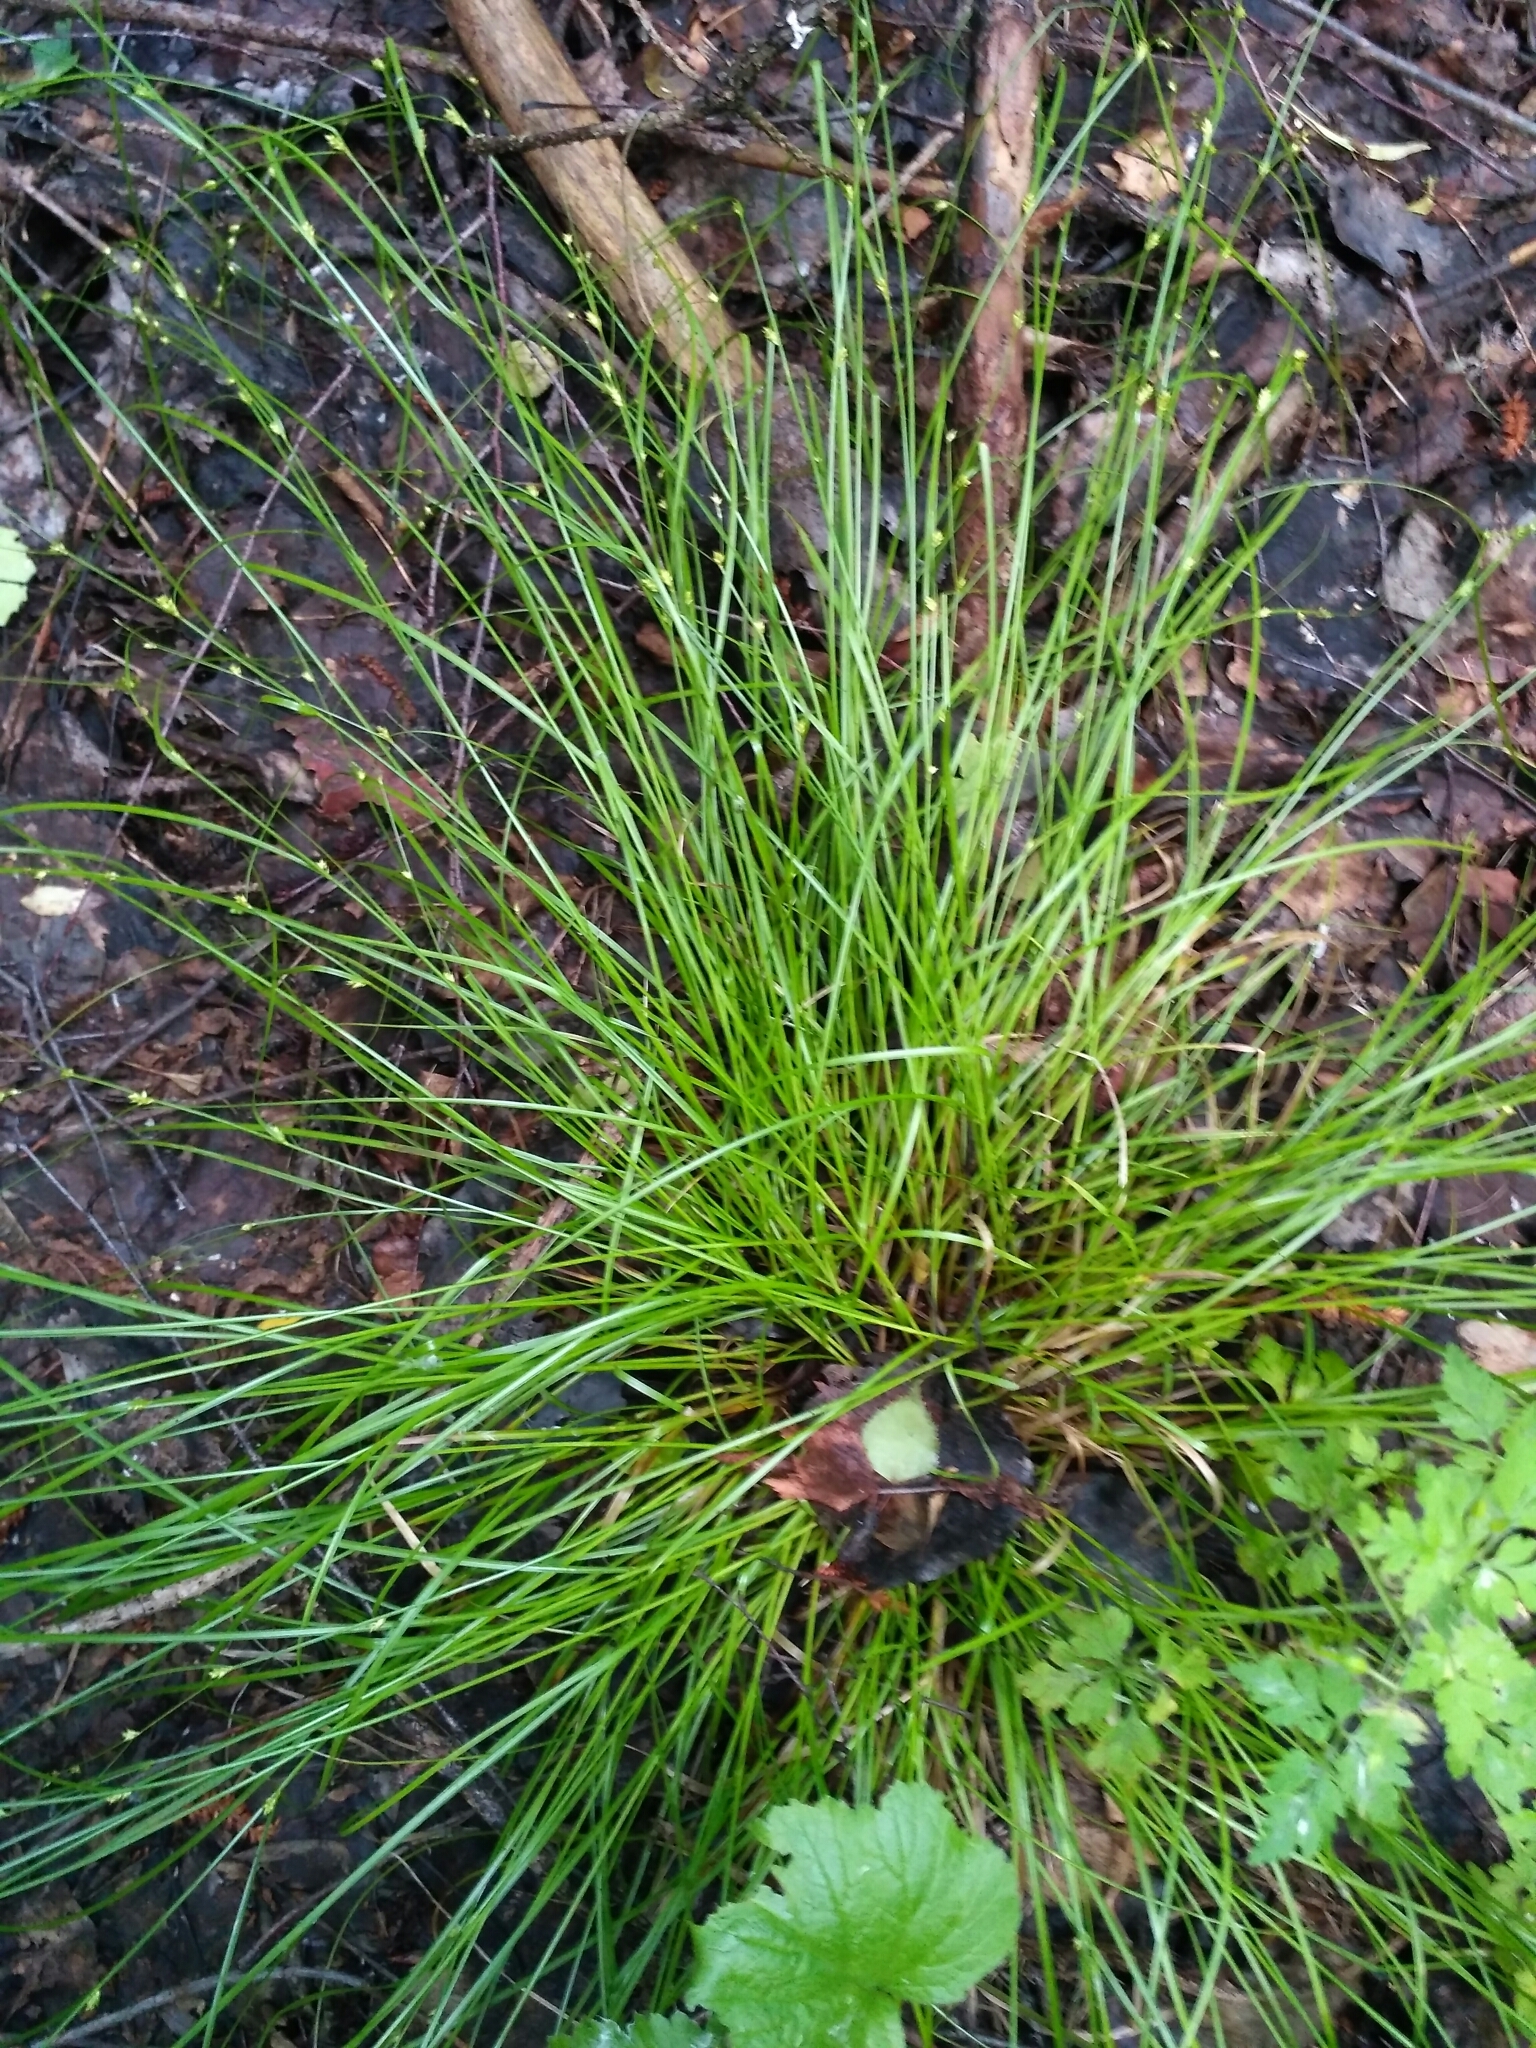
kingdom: Plantae
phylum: Tracheophyta
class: Liliopsida
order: Poales
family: Cyperaceae
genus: Carex
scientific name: Carex remota
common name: Remote sedge
